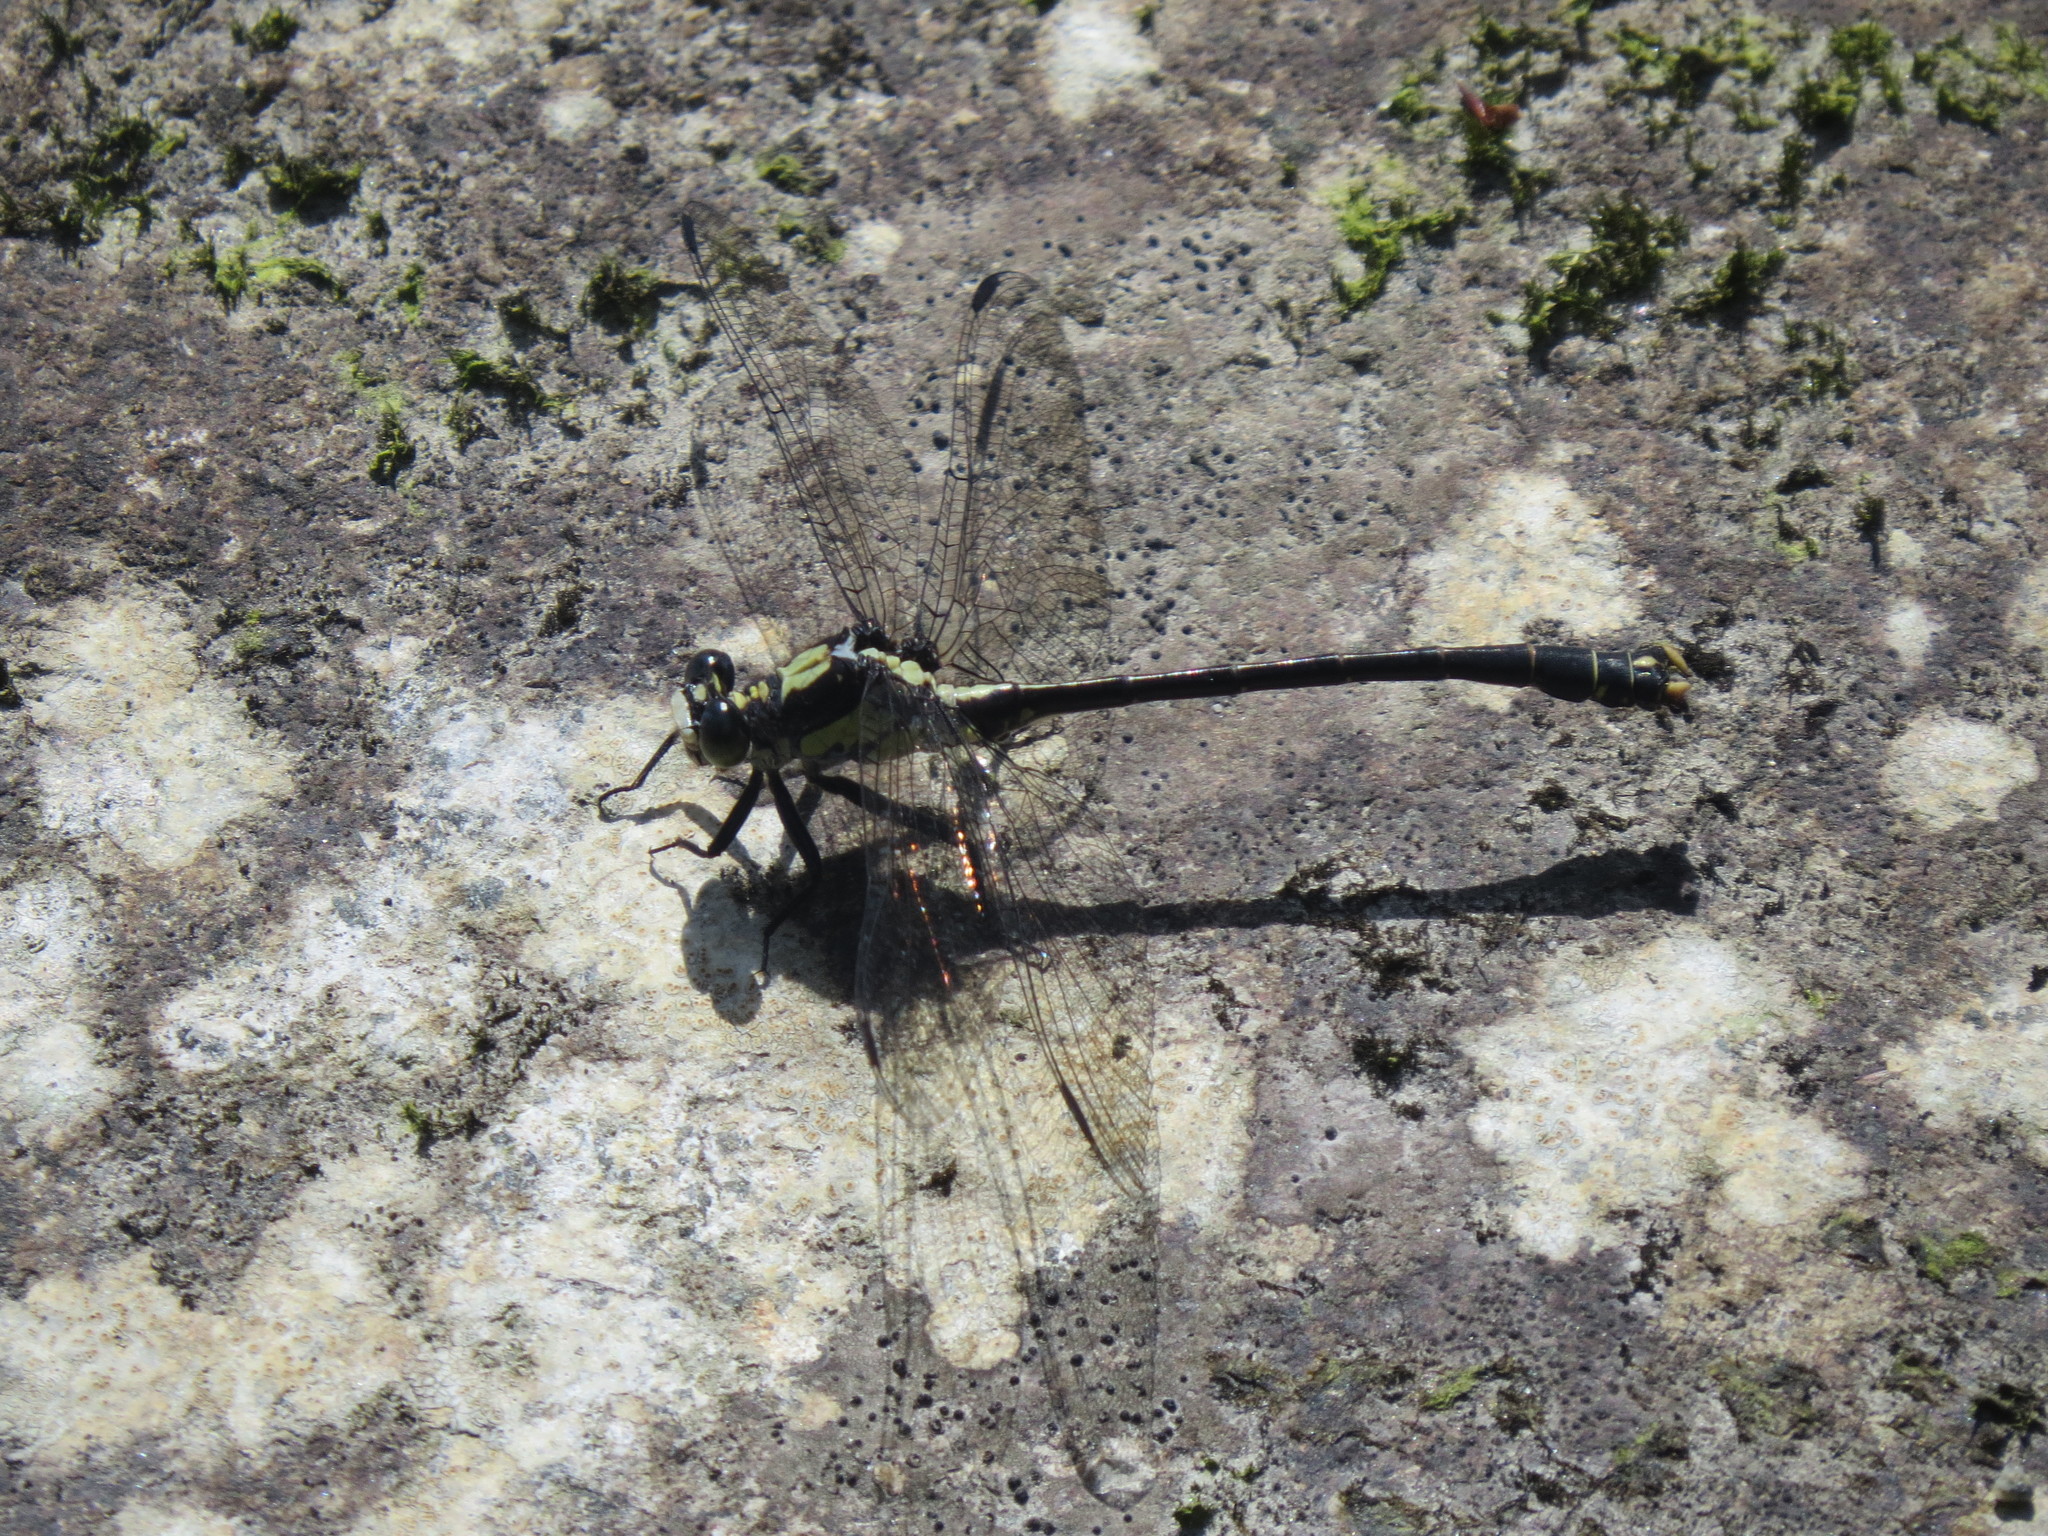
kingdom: Animalia
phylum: Arthropoda
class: Insecta
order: Odonata
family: Gomphidae
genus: Octogomphus
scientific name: Octogomphus specularis
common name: Grappletail
